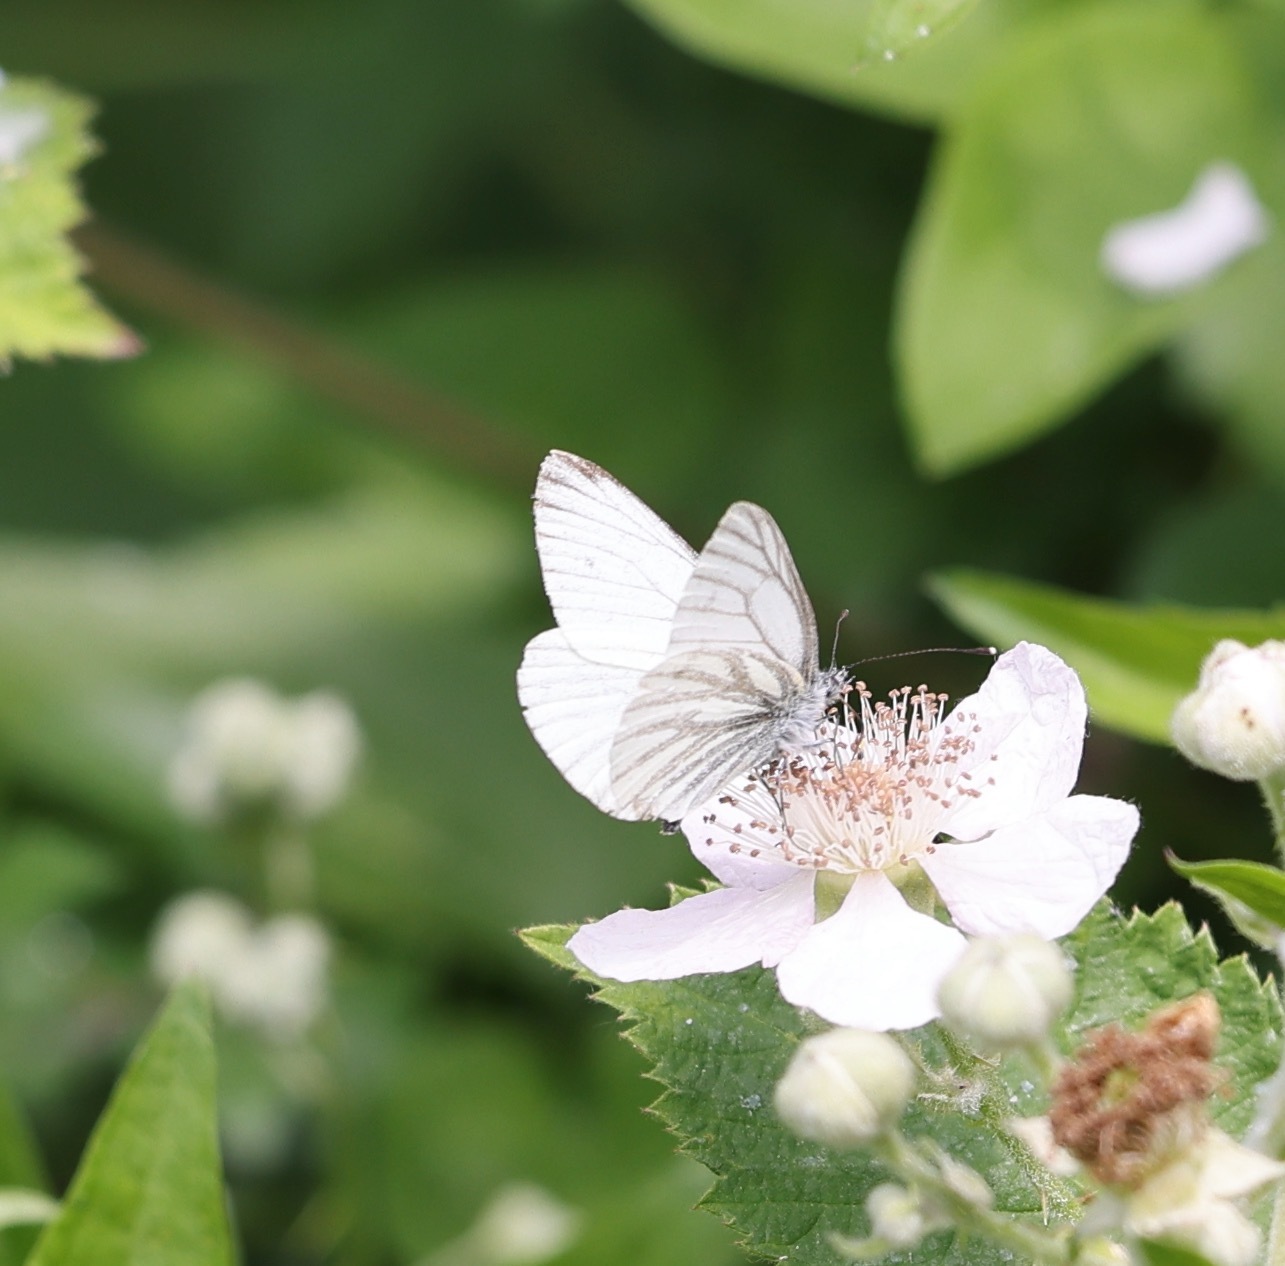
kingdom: Animalia
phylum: Arthropoda
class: Insecta
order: Lepidoptera
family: Pieridae
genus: Pieris
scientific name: Pieris napi
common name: Green-veined white
